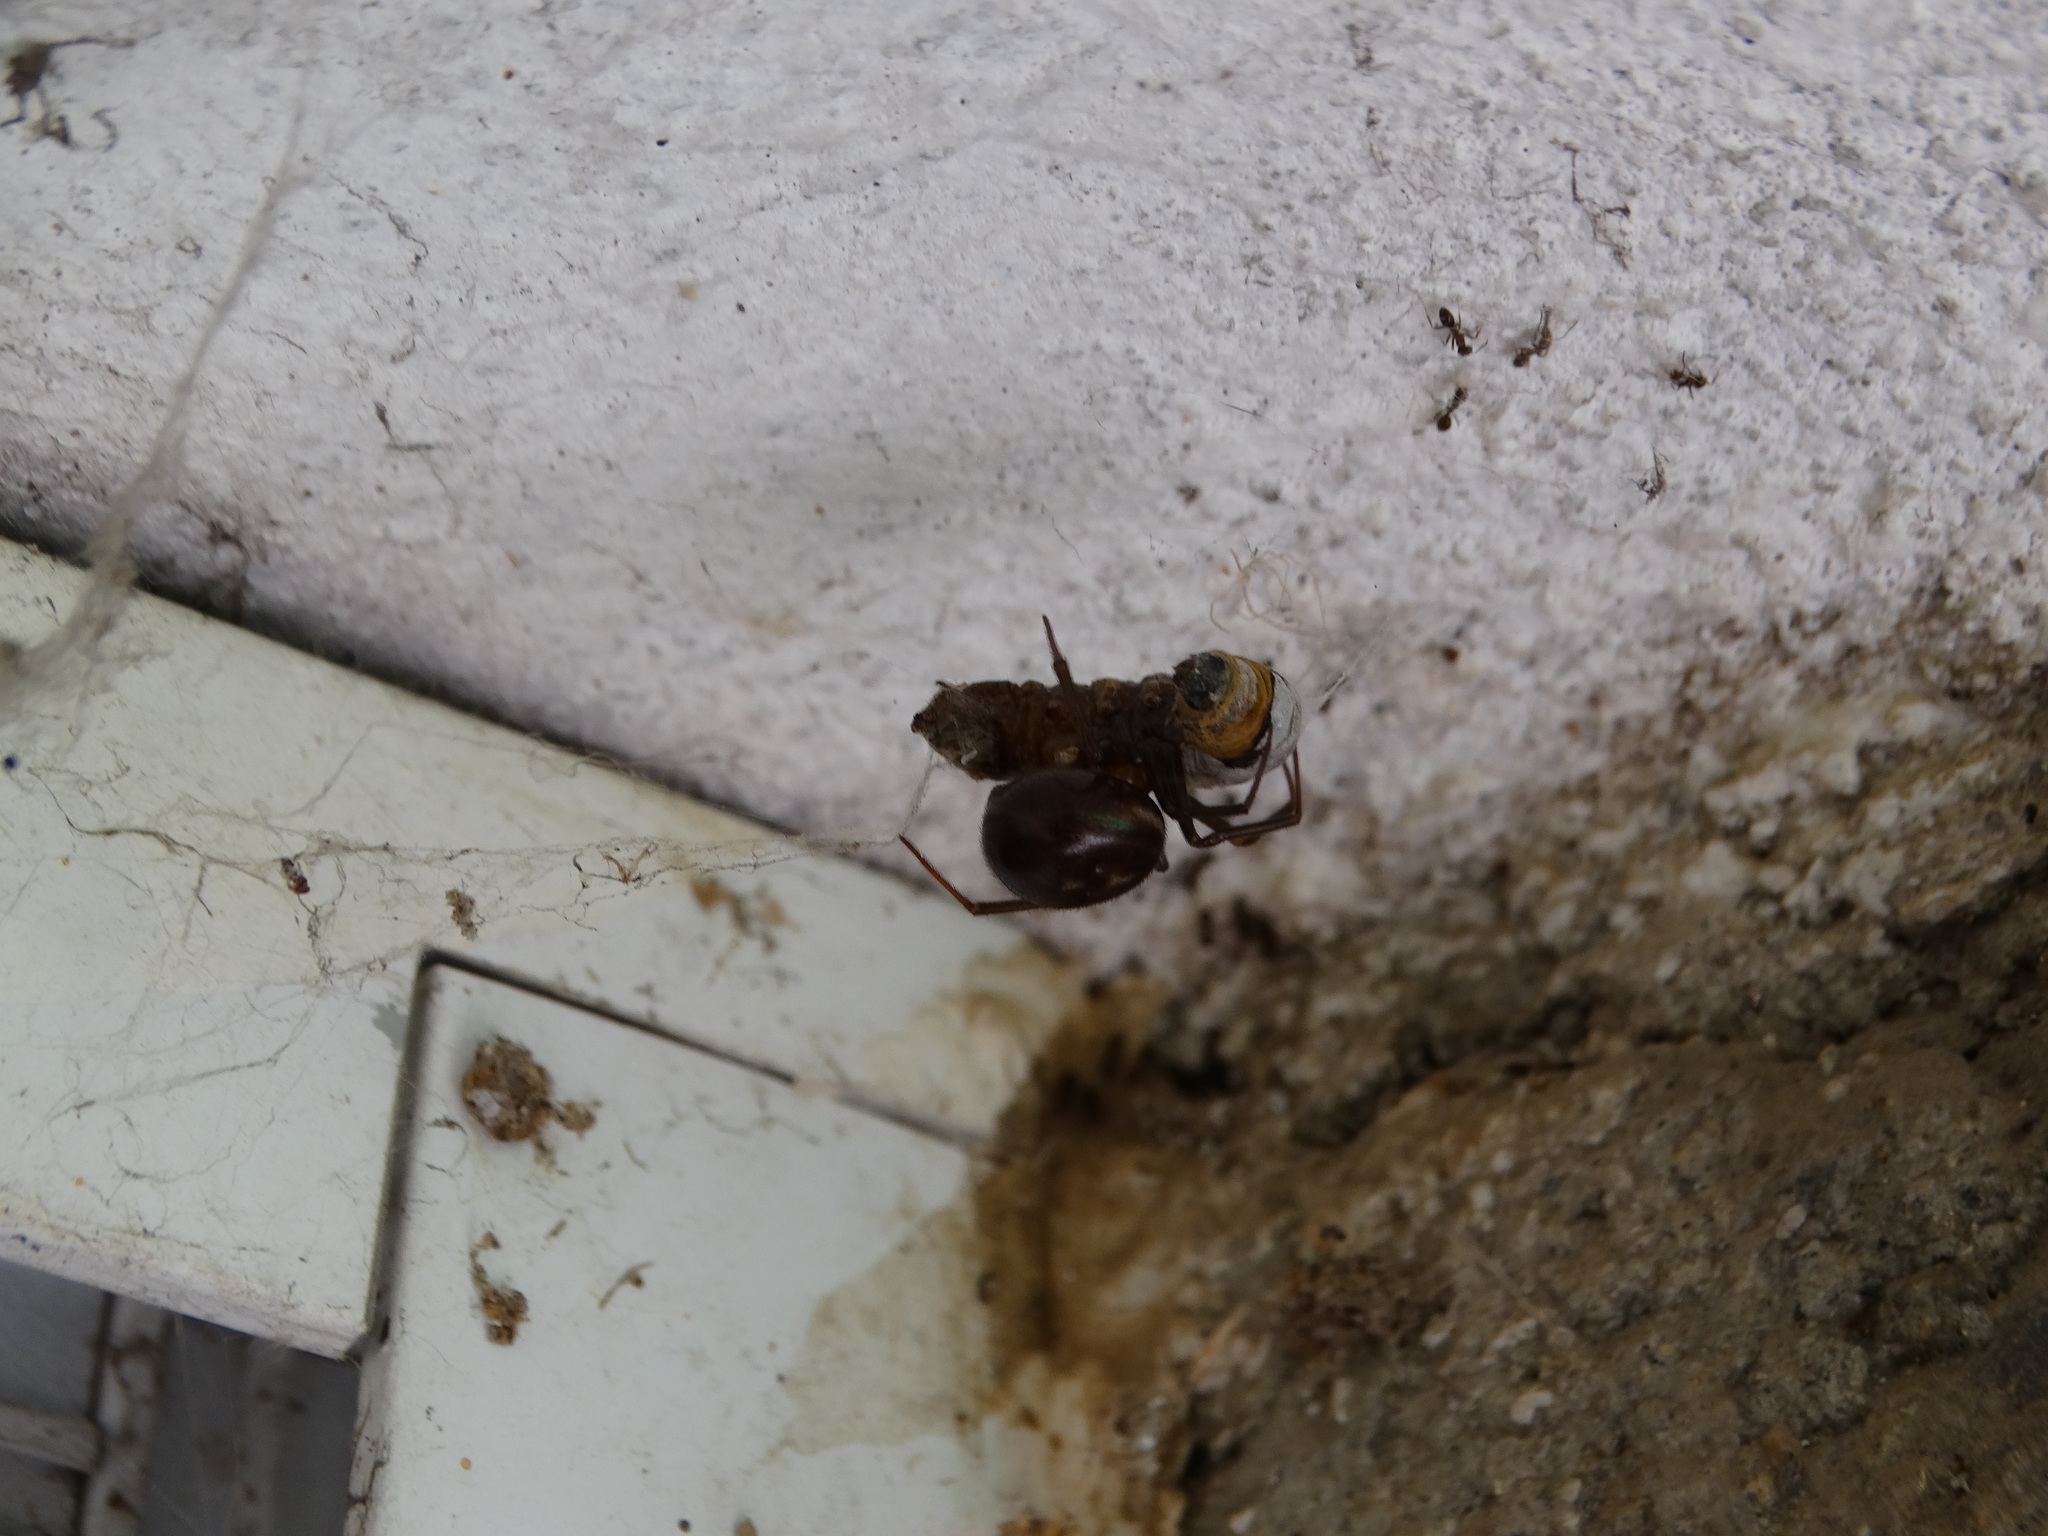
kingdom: Animalia
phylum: Arthropoda
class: Arachnida
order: Araneae
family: Theridiidae
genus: Latrodectus
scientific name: Latrodectus mactans
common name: Cobweb spiders
